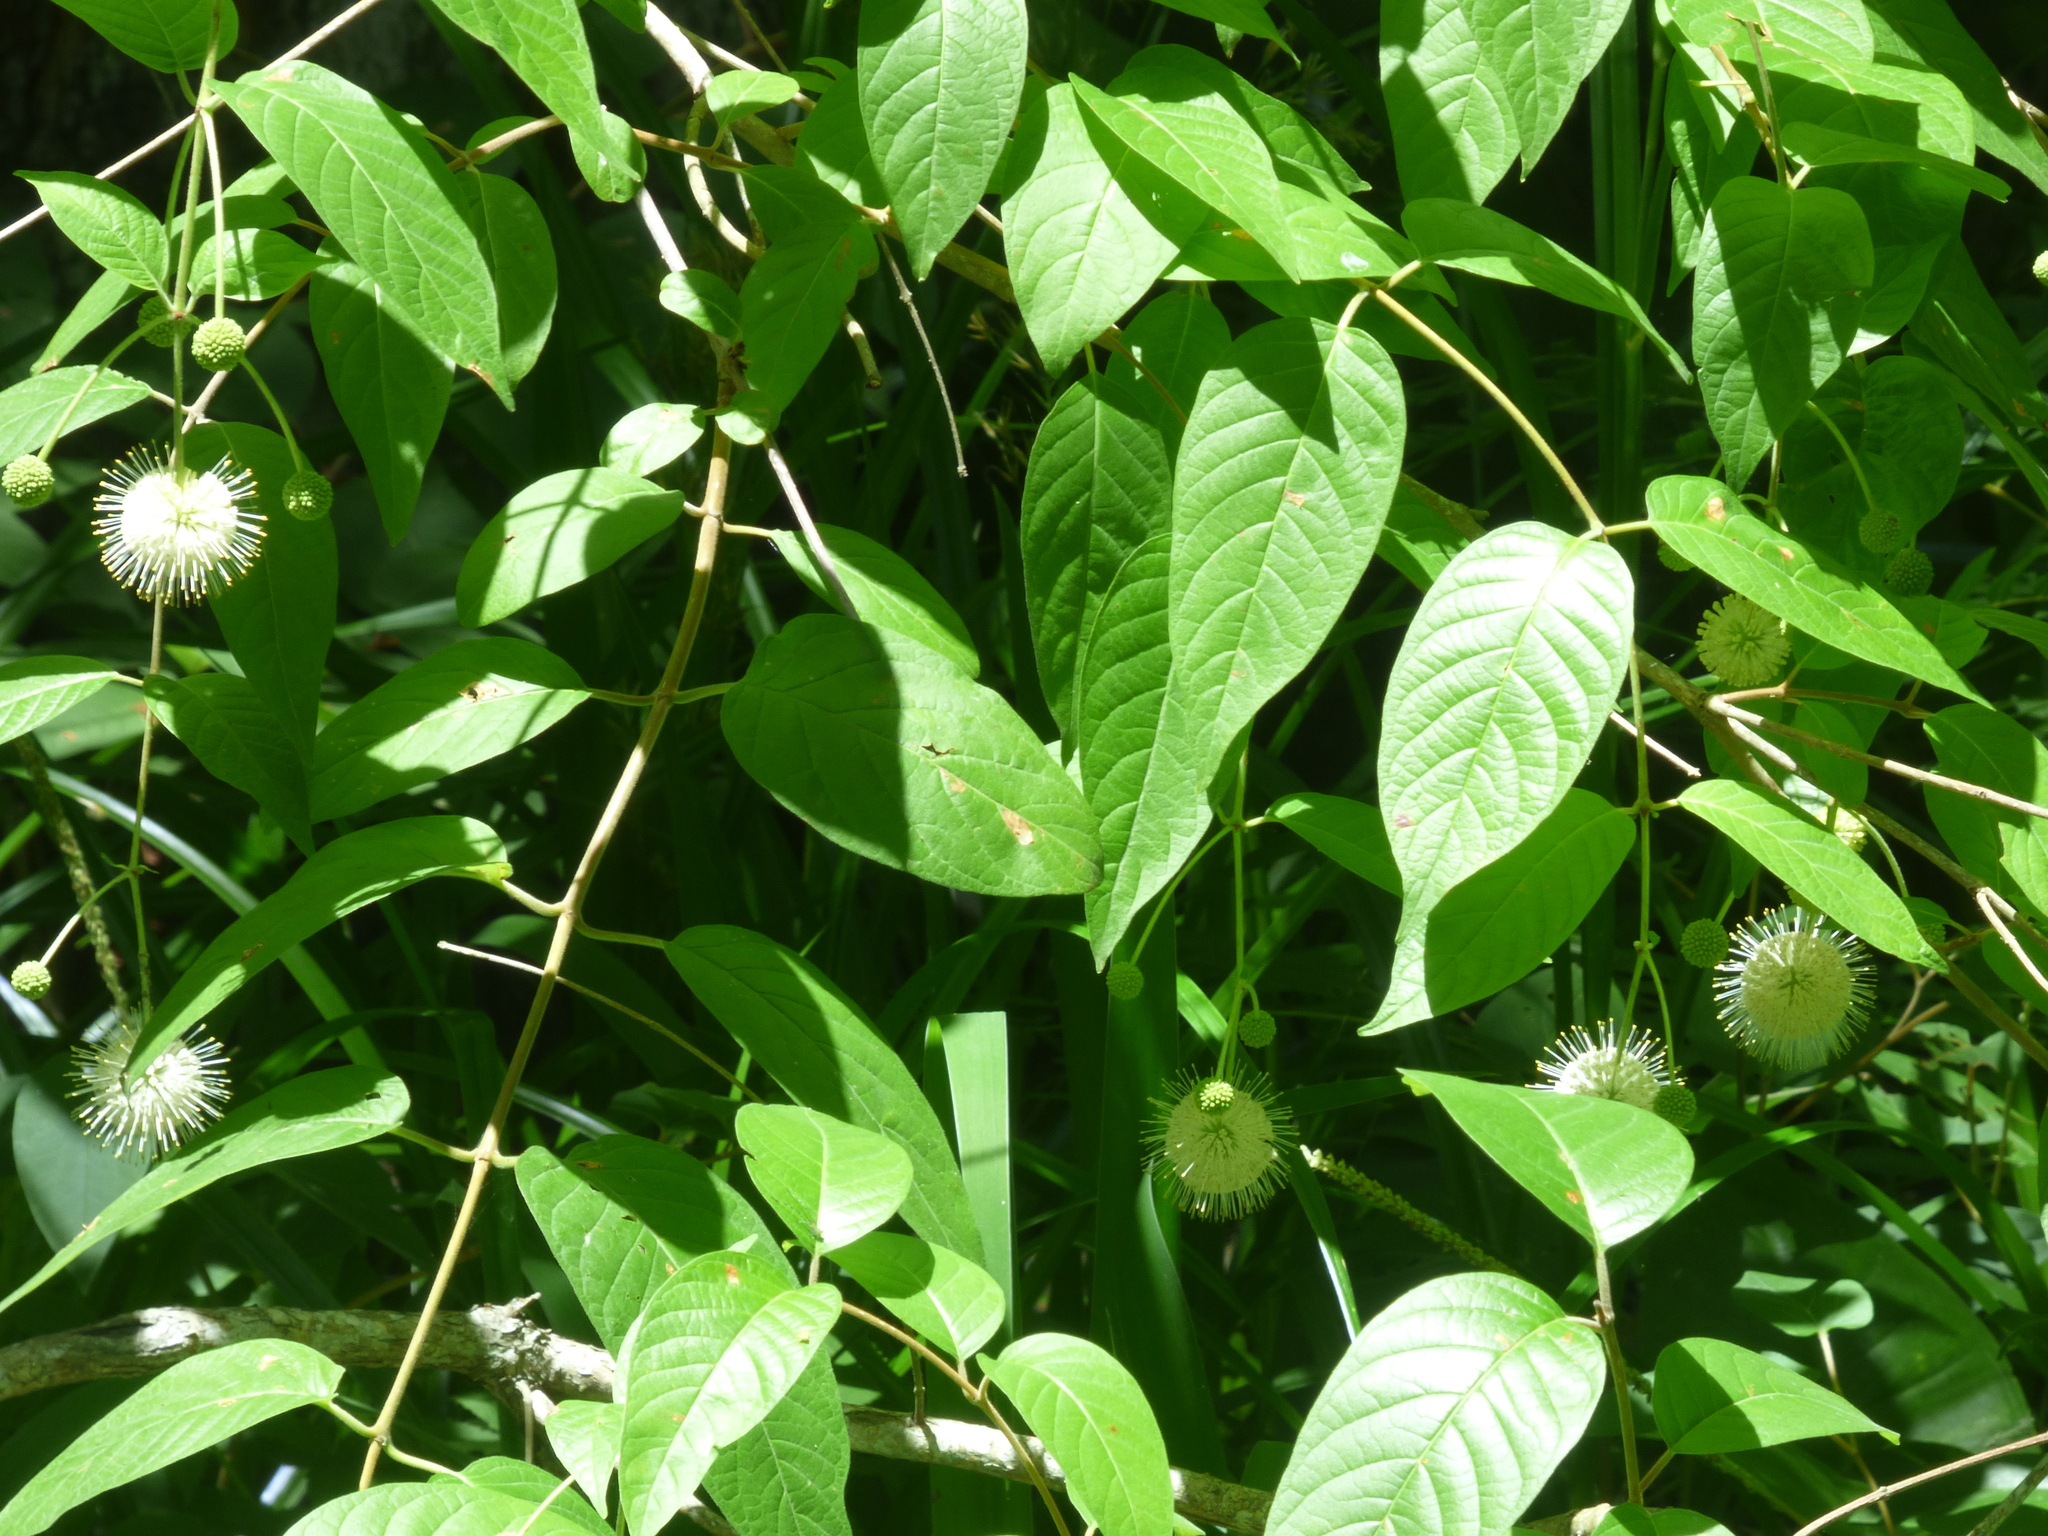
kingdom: Plantae
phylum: Tracheophyta
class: Magnoliopsida
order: Gentianales
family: Rubiaceae
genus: Cephalanthus
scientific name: Cephalanthus occidentalis
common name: Button-willow
